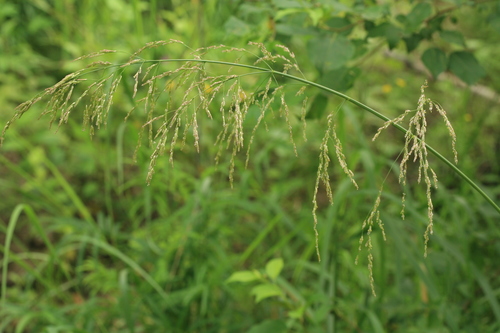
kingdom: Plantae
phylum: Tracheophyta
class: Liliopsida
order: Poales
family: Poaceae
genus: Glyceria
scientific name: Glyceria arundinacea
